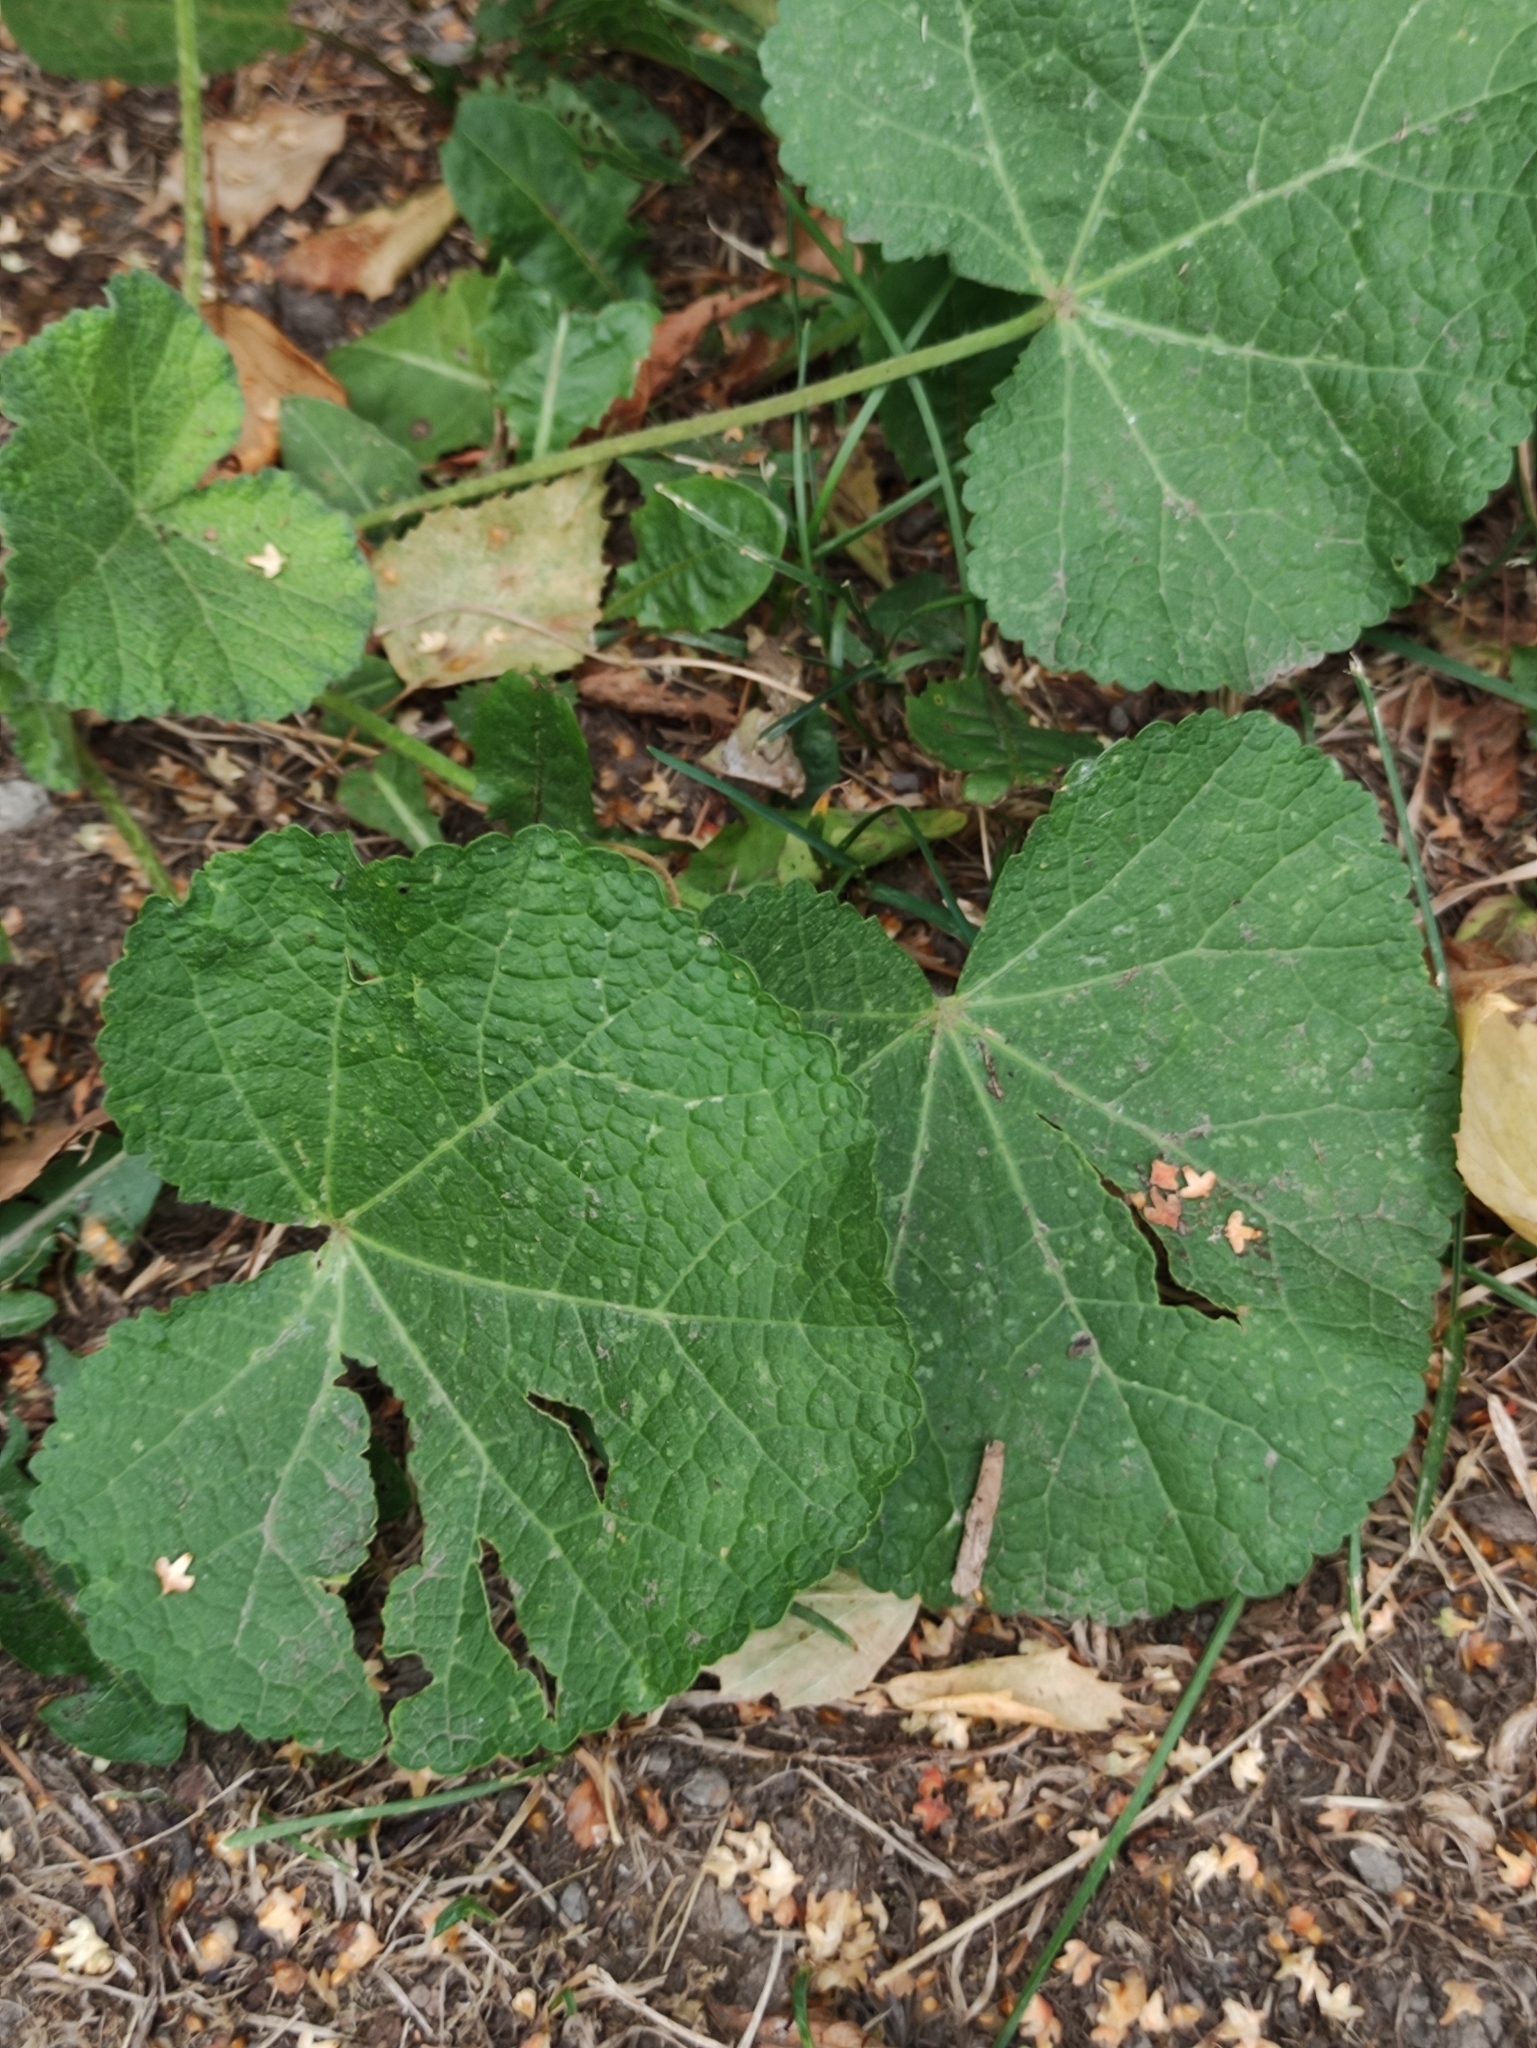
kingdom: Plantae
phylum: Tracheophyta
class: Magnoliopsida
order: Malvales
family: Malvaceae
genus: Alcea
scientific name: Alcea rosea
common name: Hollyhock
